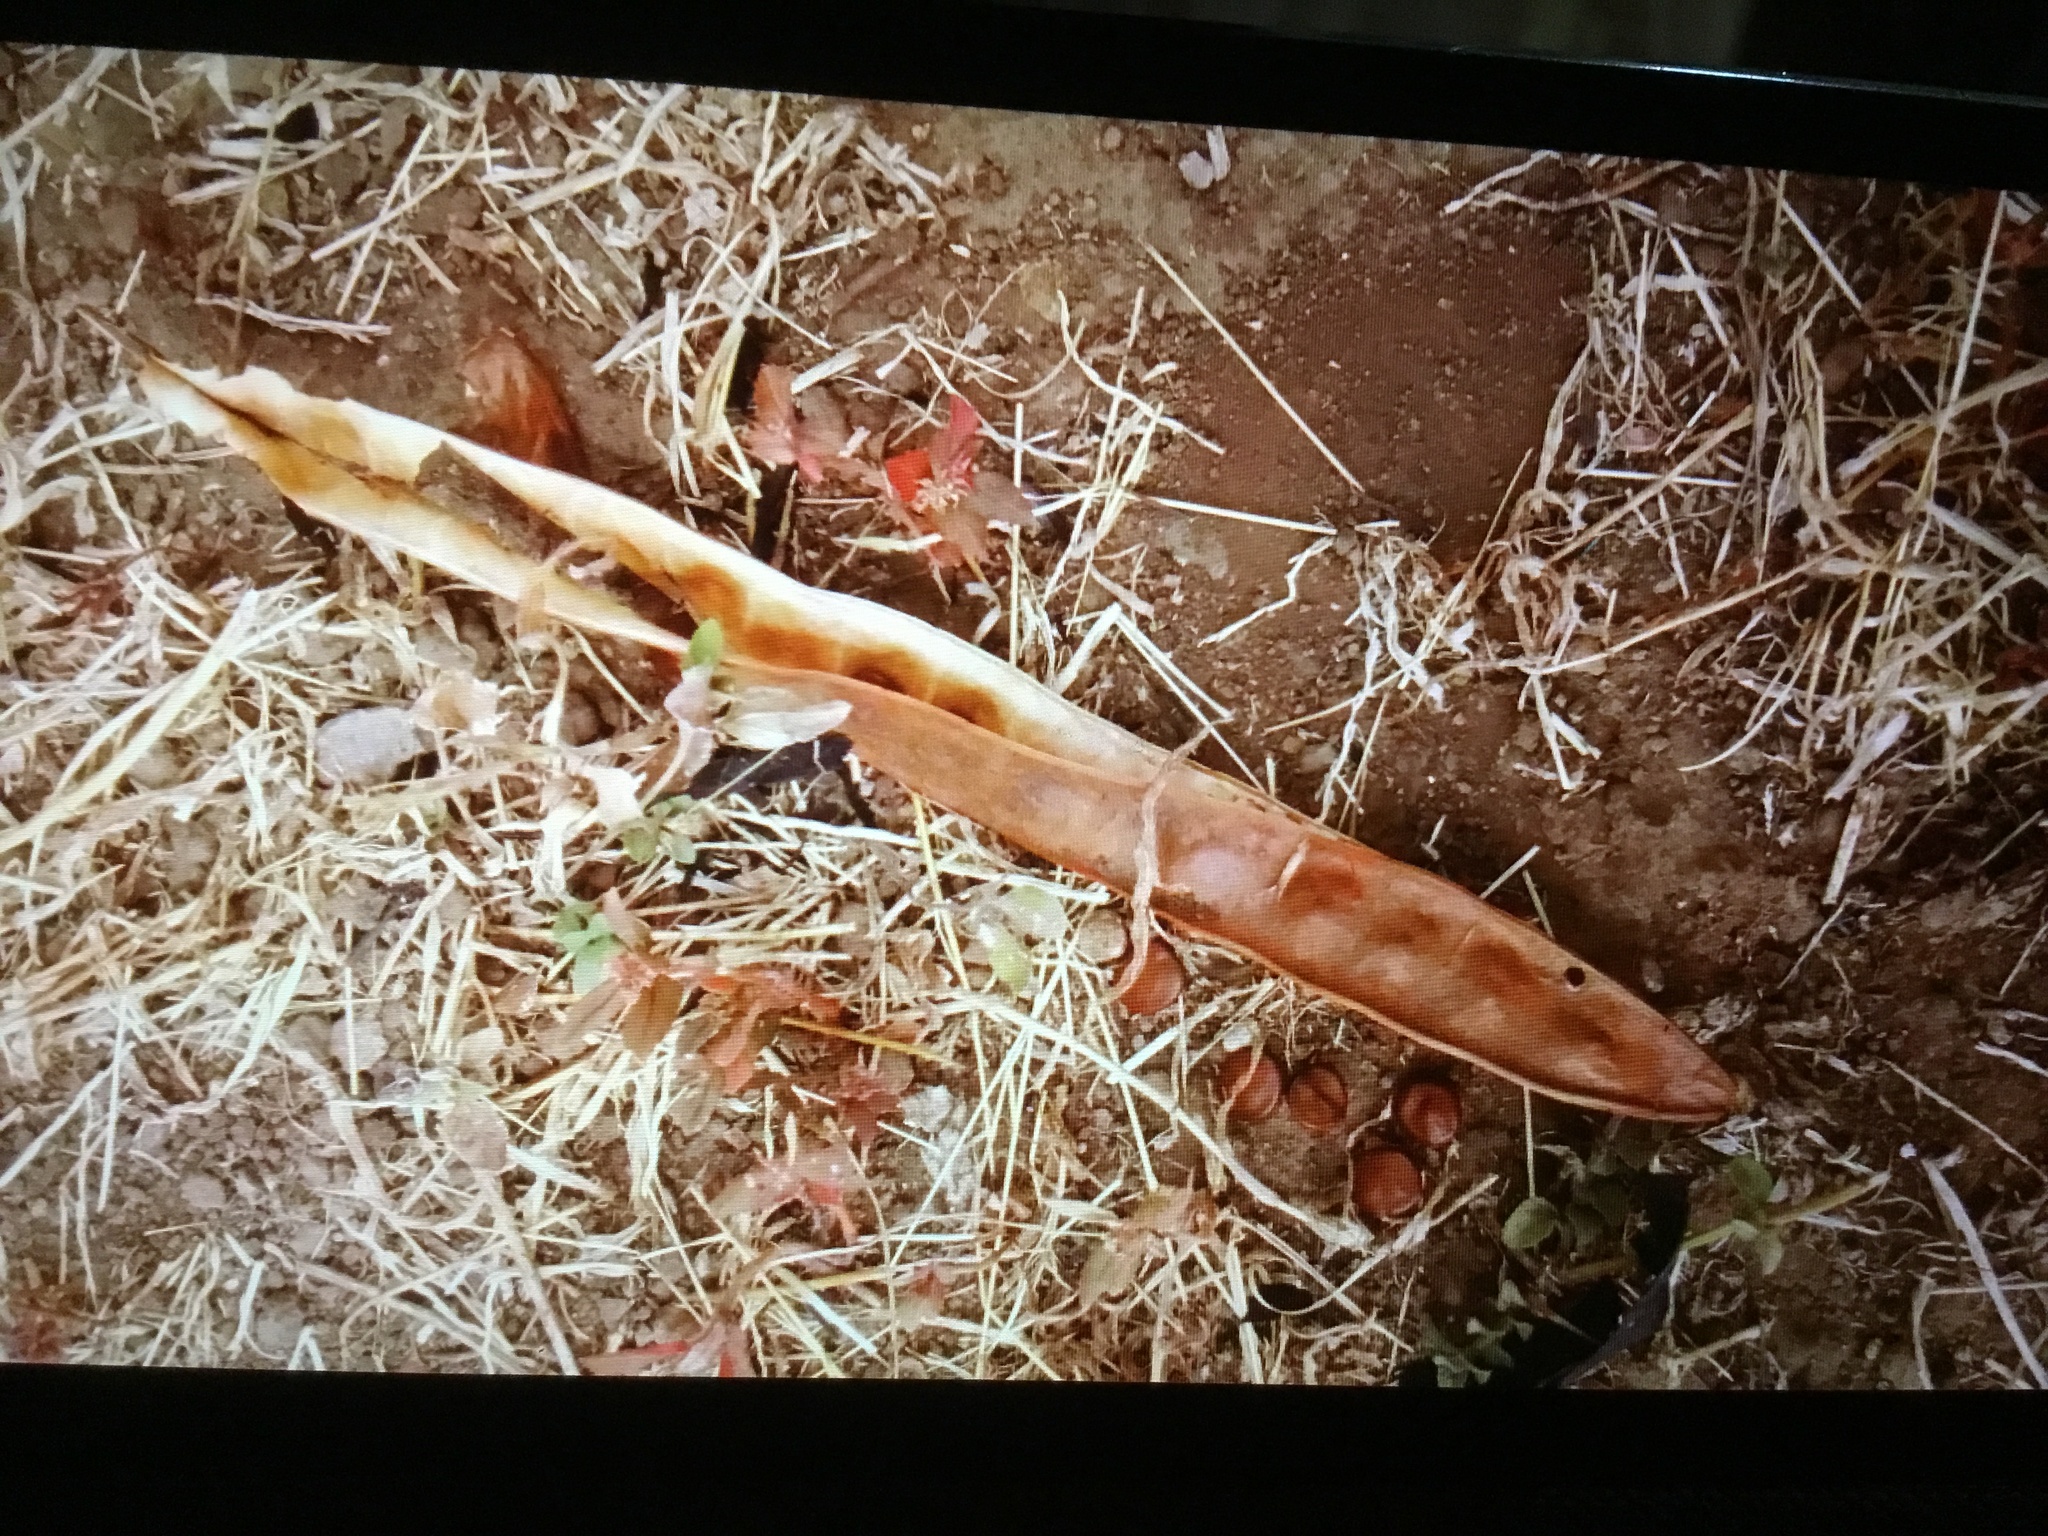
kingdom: Plantae
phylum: Tracheophyta
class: Magnoliopsida
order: Fabales
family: Fabaceae
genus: Leucaena
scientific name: Leucaena esculenta
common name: Guaje
